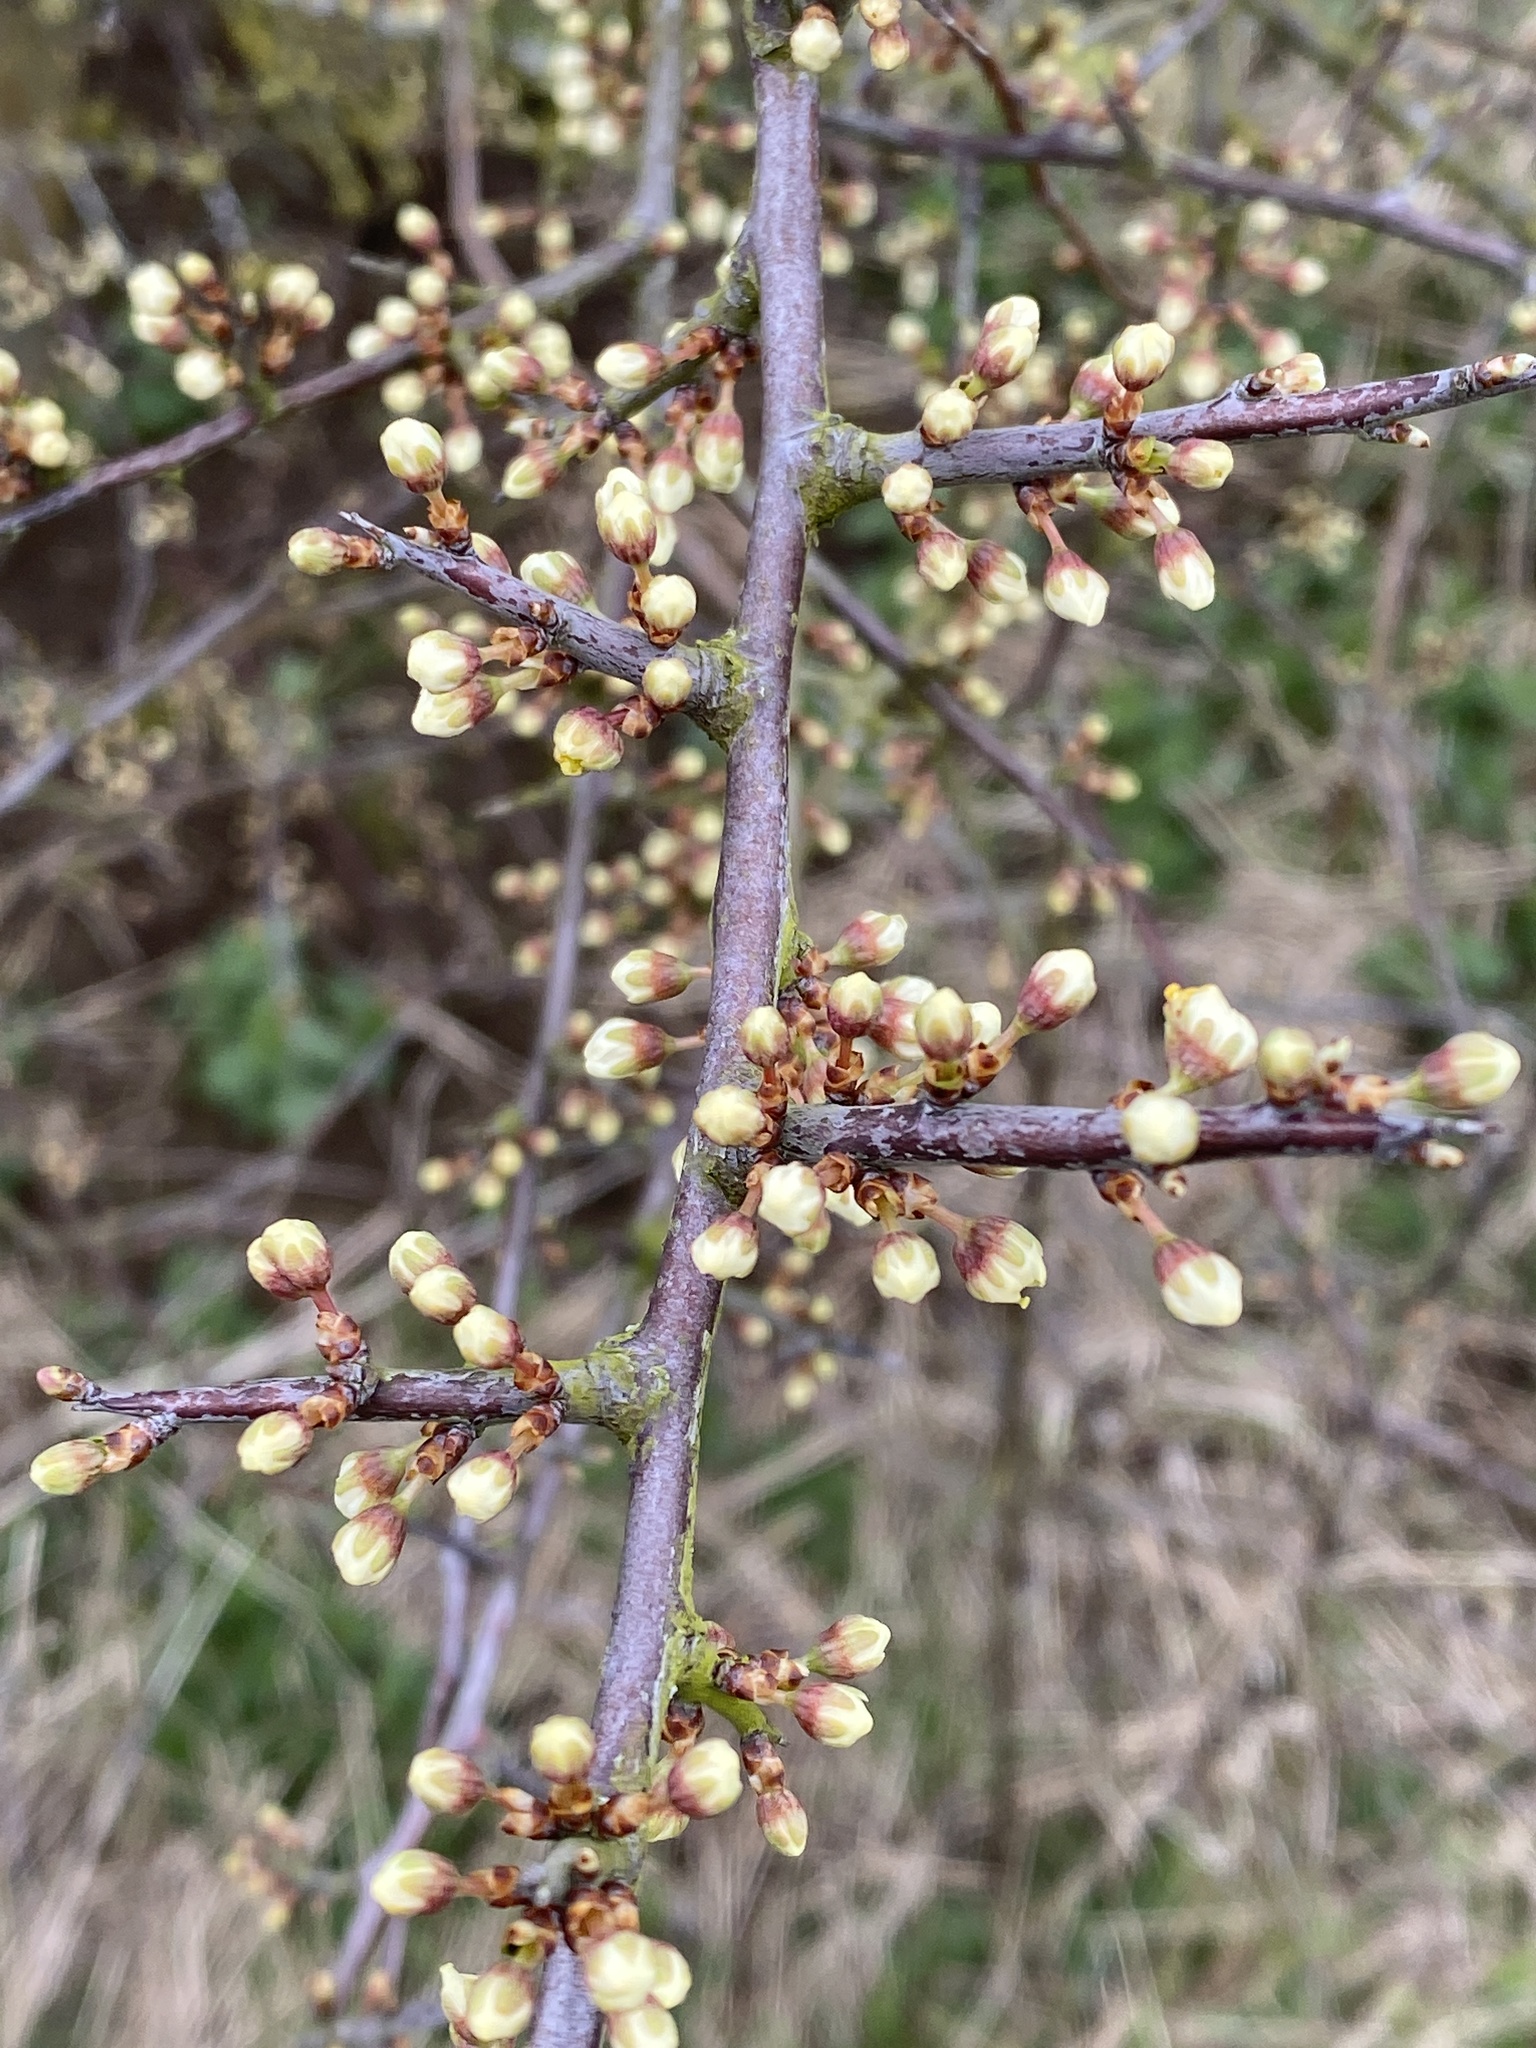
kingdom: Plantae
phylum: Tracheophyta
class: Magnoliopsida
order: Rosales
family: Rosaceae
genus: Prunus
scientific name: Prunus spinosa
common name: Blackthorn
